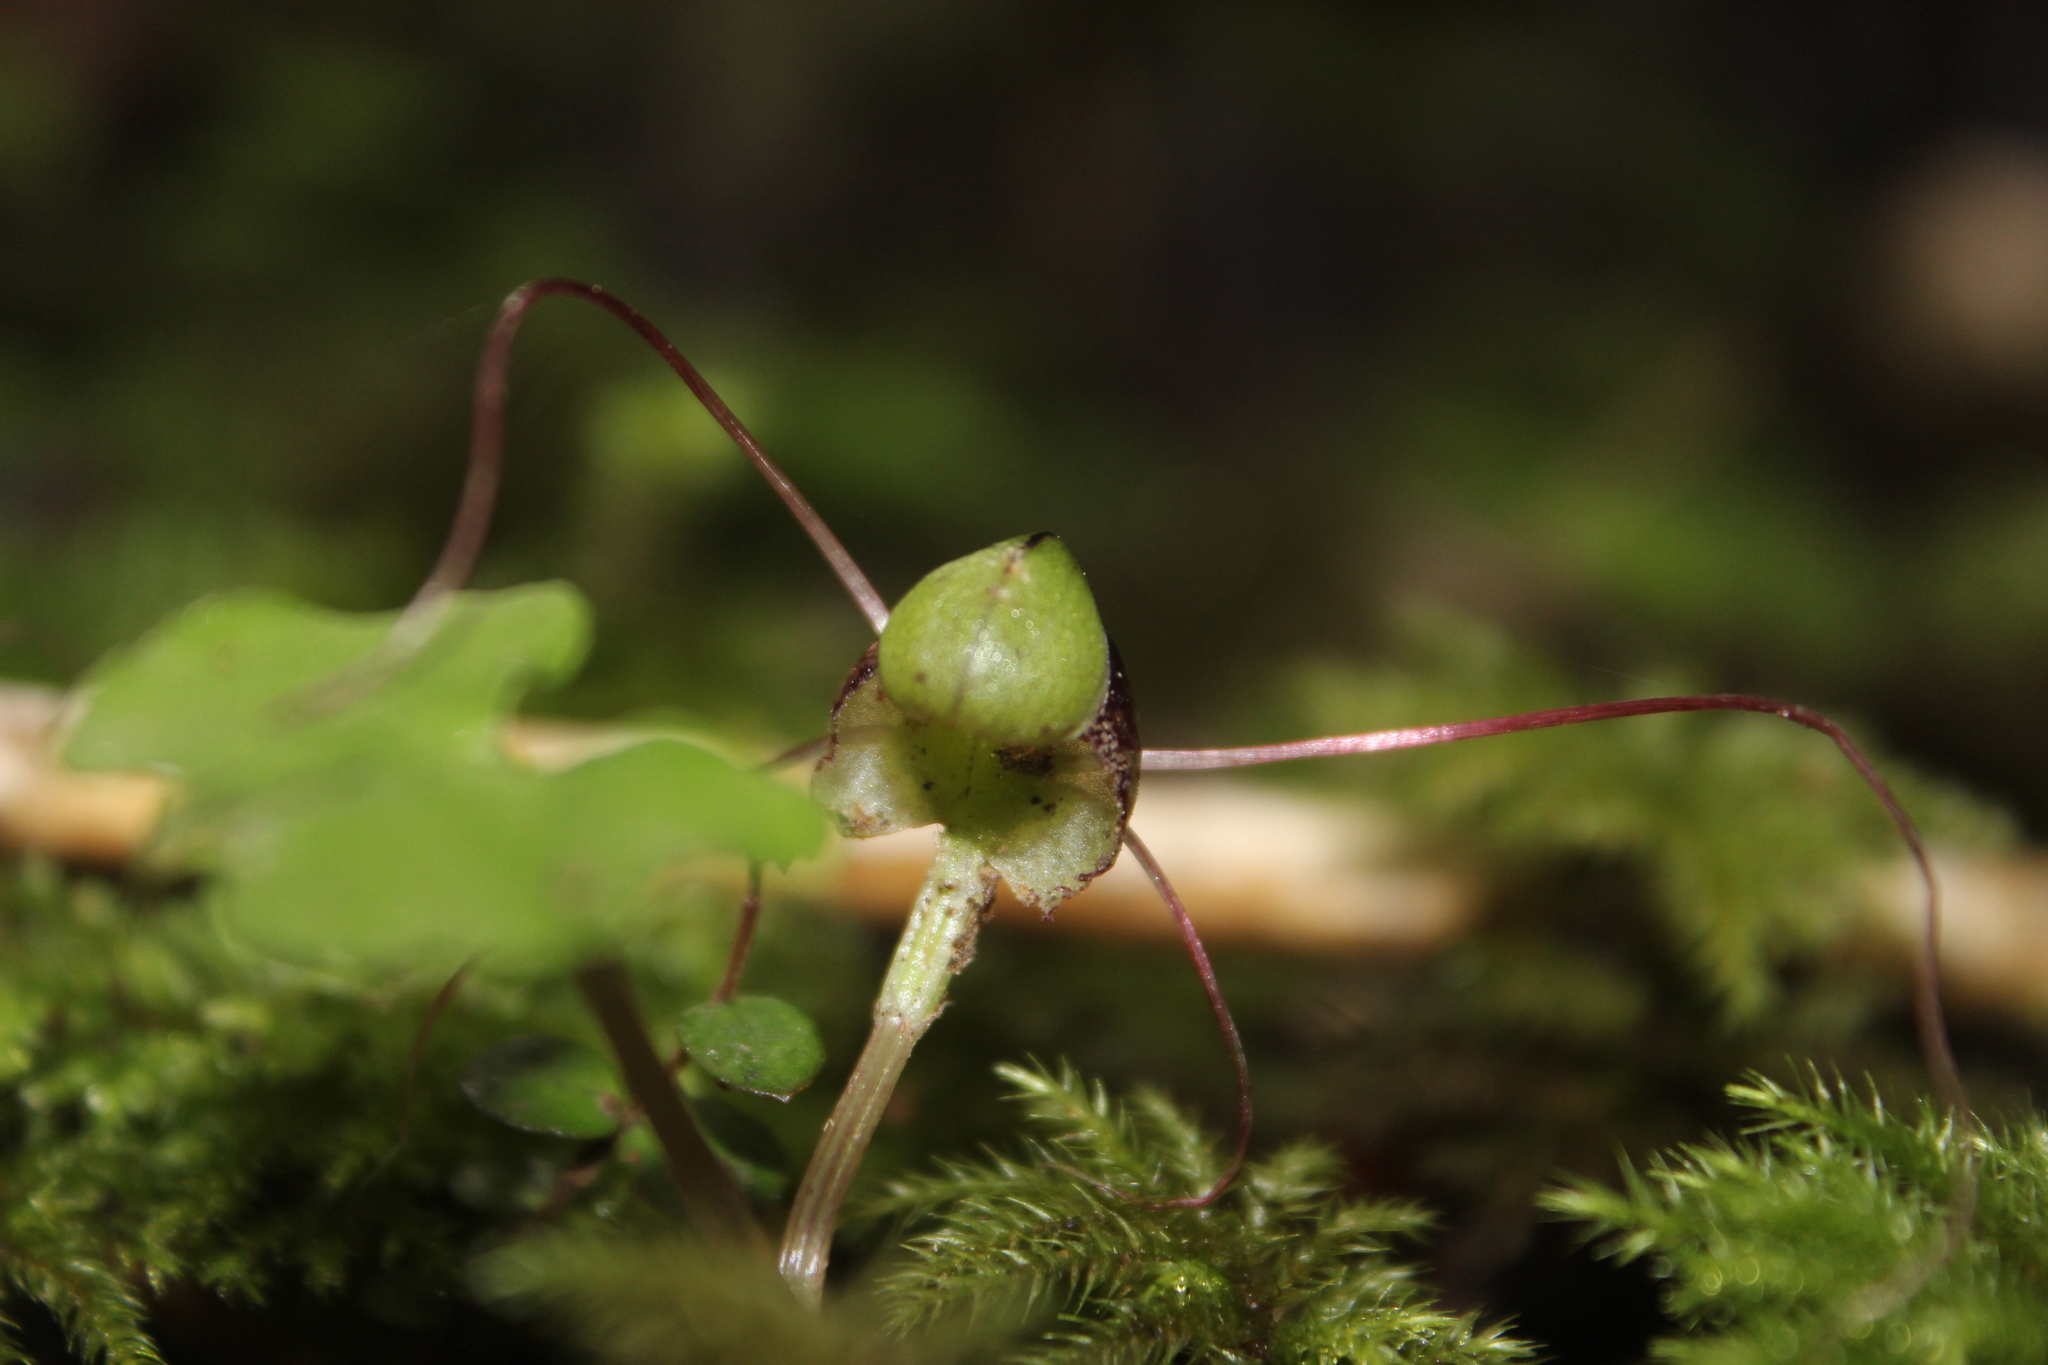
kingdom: Plantae
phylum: Tracheophyta
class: Liliopsida
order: Asparagales
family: Orchidaceae
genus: Corybas
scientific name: Corybas vitreus
